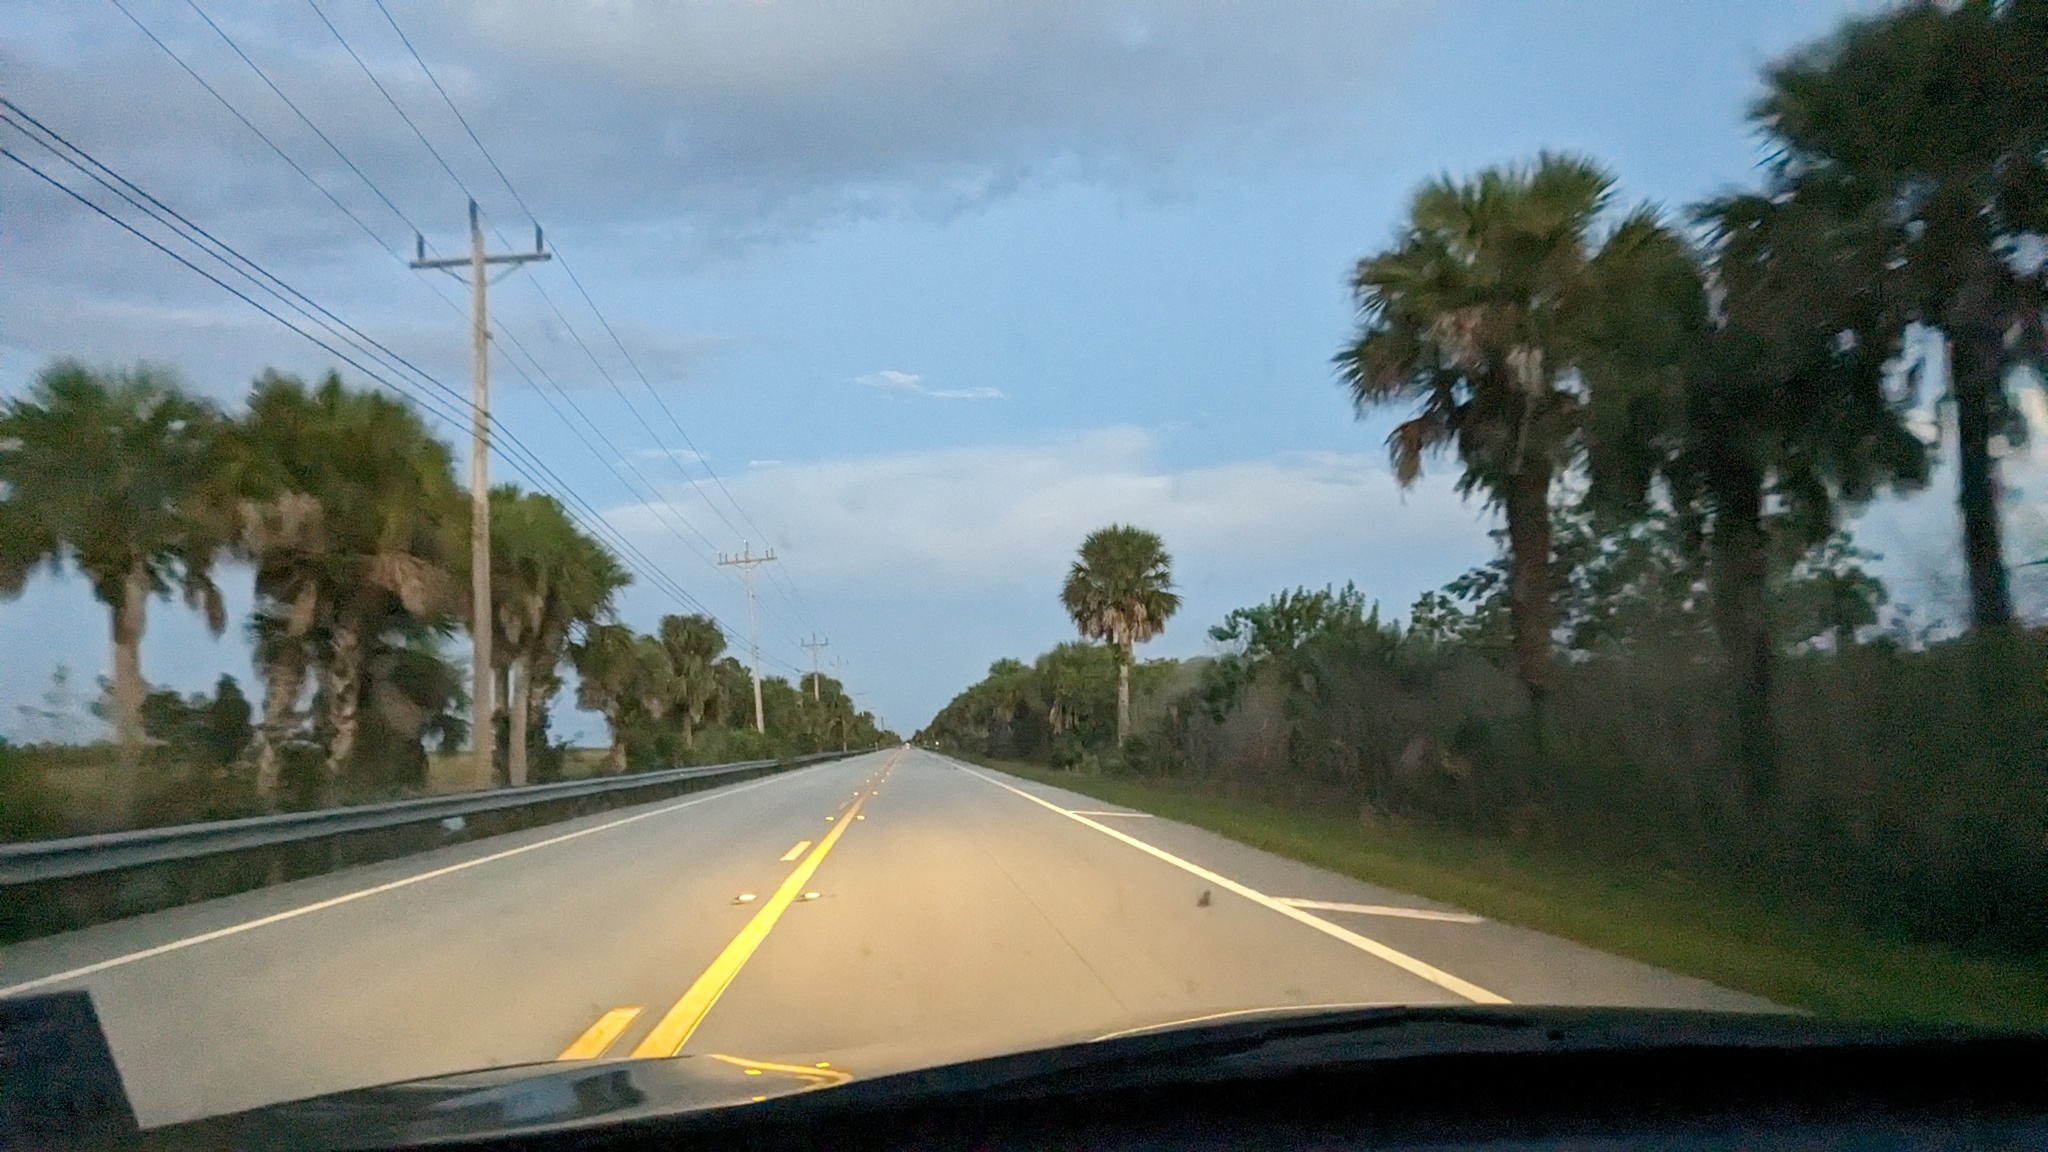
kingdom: Plantae
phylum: Tracheophyta
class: Liliopsida
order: Arecales
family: Arecaceae
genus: Sabal
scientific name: Sabal palmetto
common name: Blue palmetto
